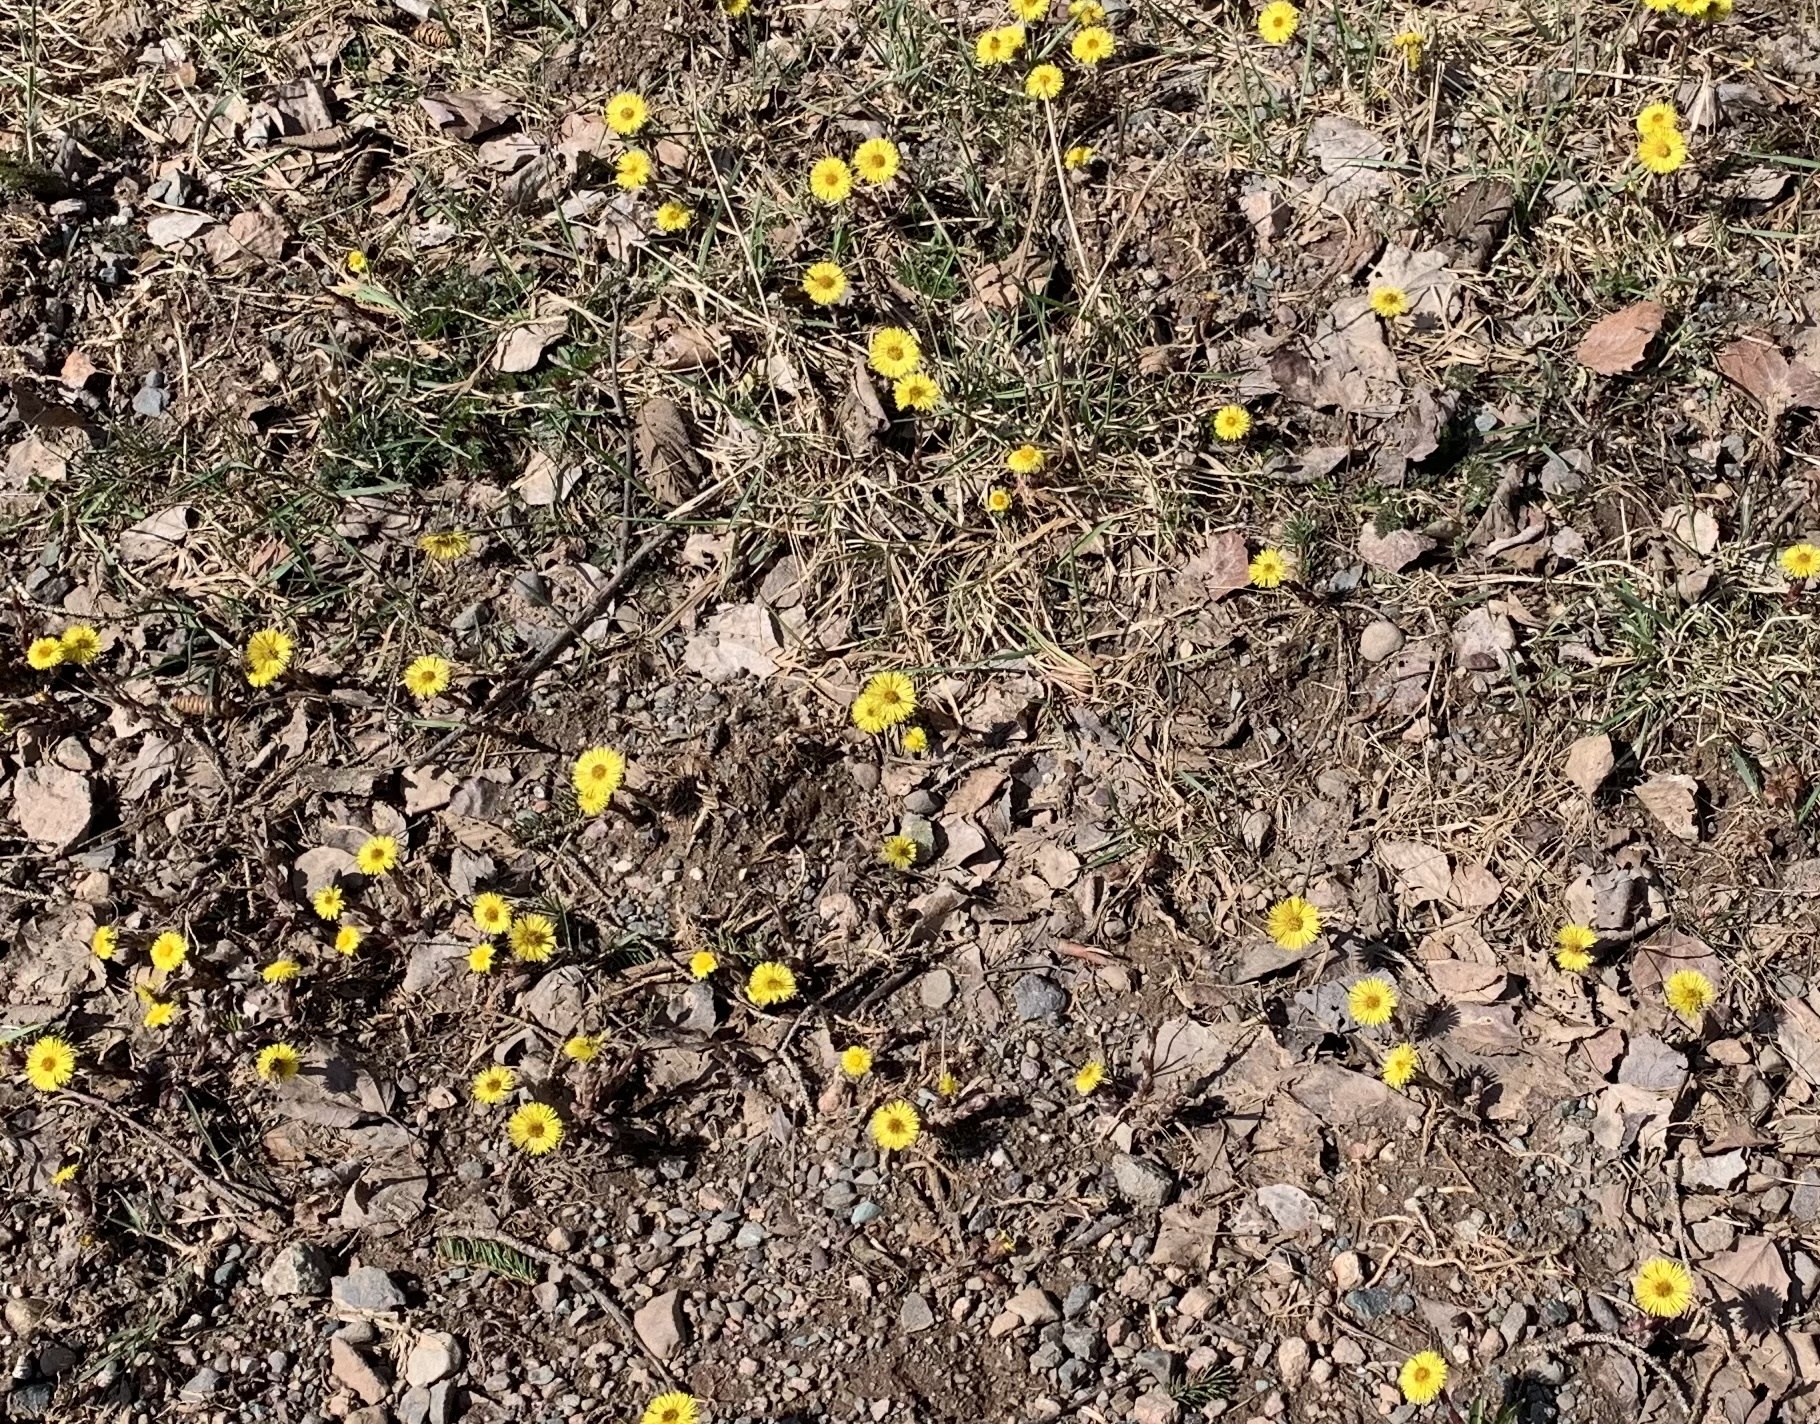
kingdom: Plantae
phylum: Tracheophyta
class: Magnoliopsida
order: Asterales
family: Asteraceae
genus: Tussilago
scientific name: Tussilago farfara
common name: Coltsfoot
